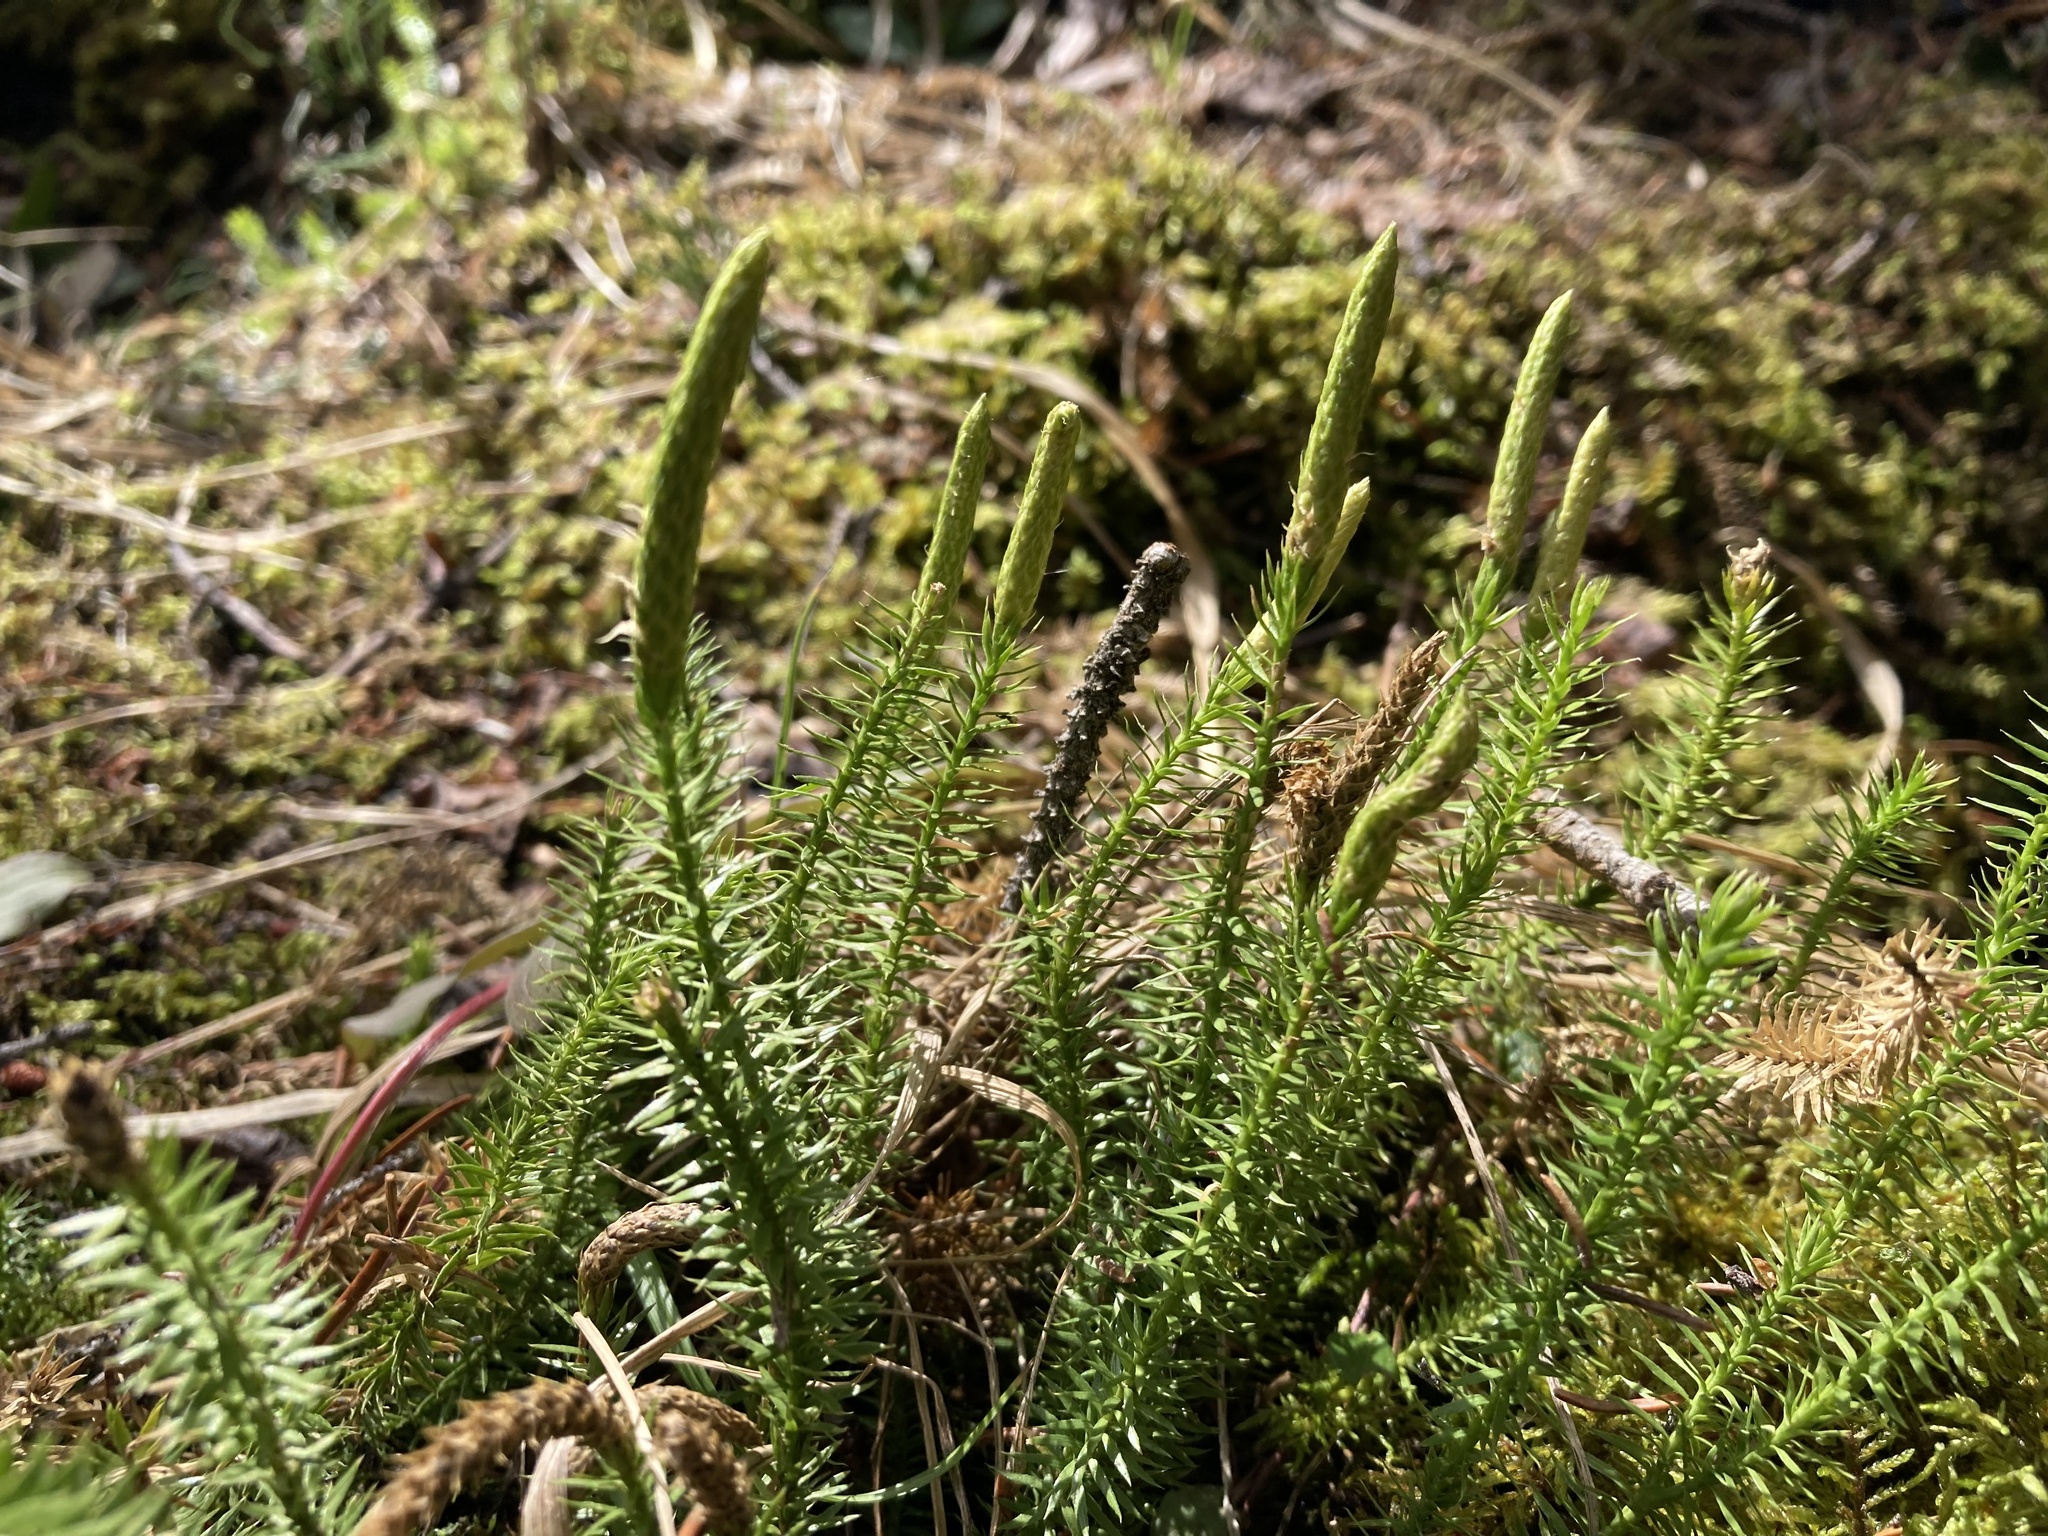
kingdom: Plantae
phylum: Tracheophyta
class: Lycopodiopsida
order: Lycopodiales
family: Lycopodiaceae
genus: Spinulum
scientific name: Spinulum annotinum
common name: Interrupted club-moss
